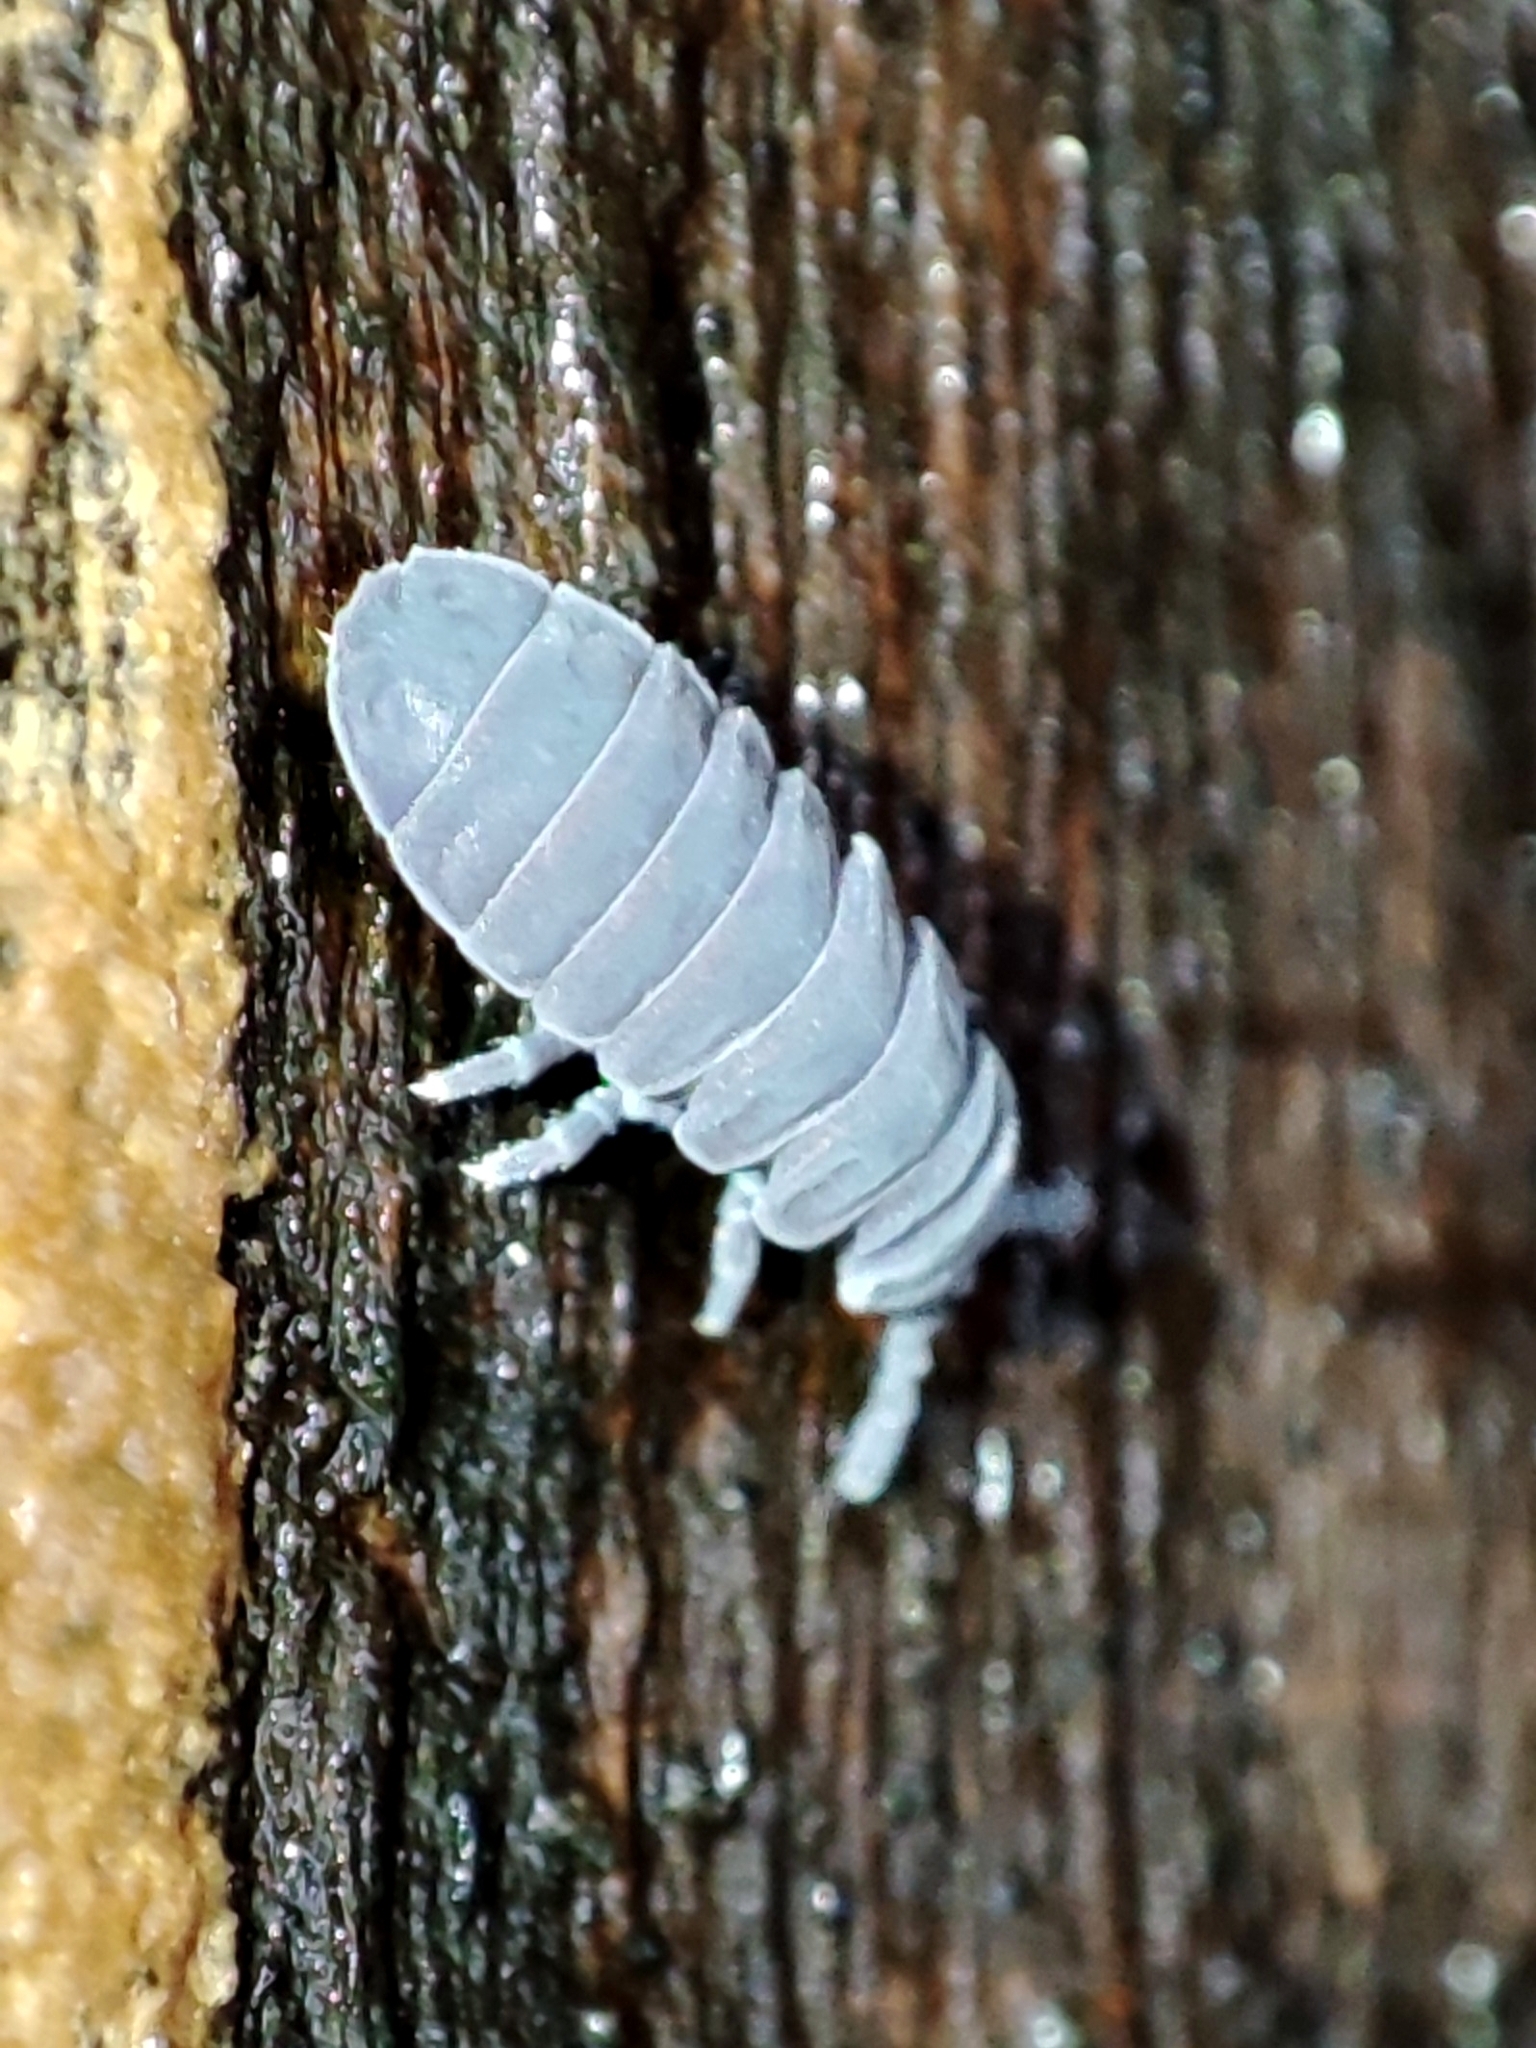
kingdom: Animalia
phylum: Arthropoda
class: Collembola
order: Poduromorpha
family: Onychiuridae
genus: Tetrodontophora
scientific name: Tetrodontophora bielanensis
